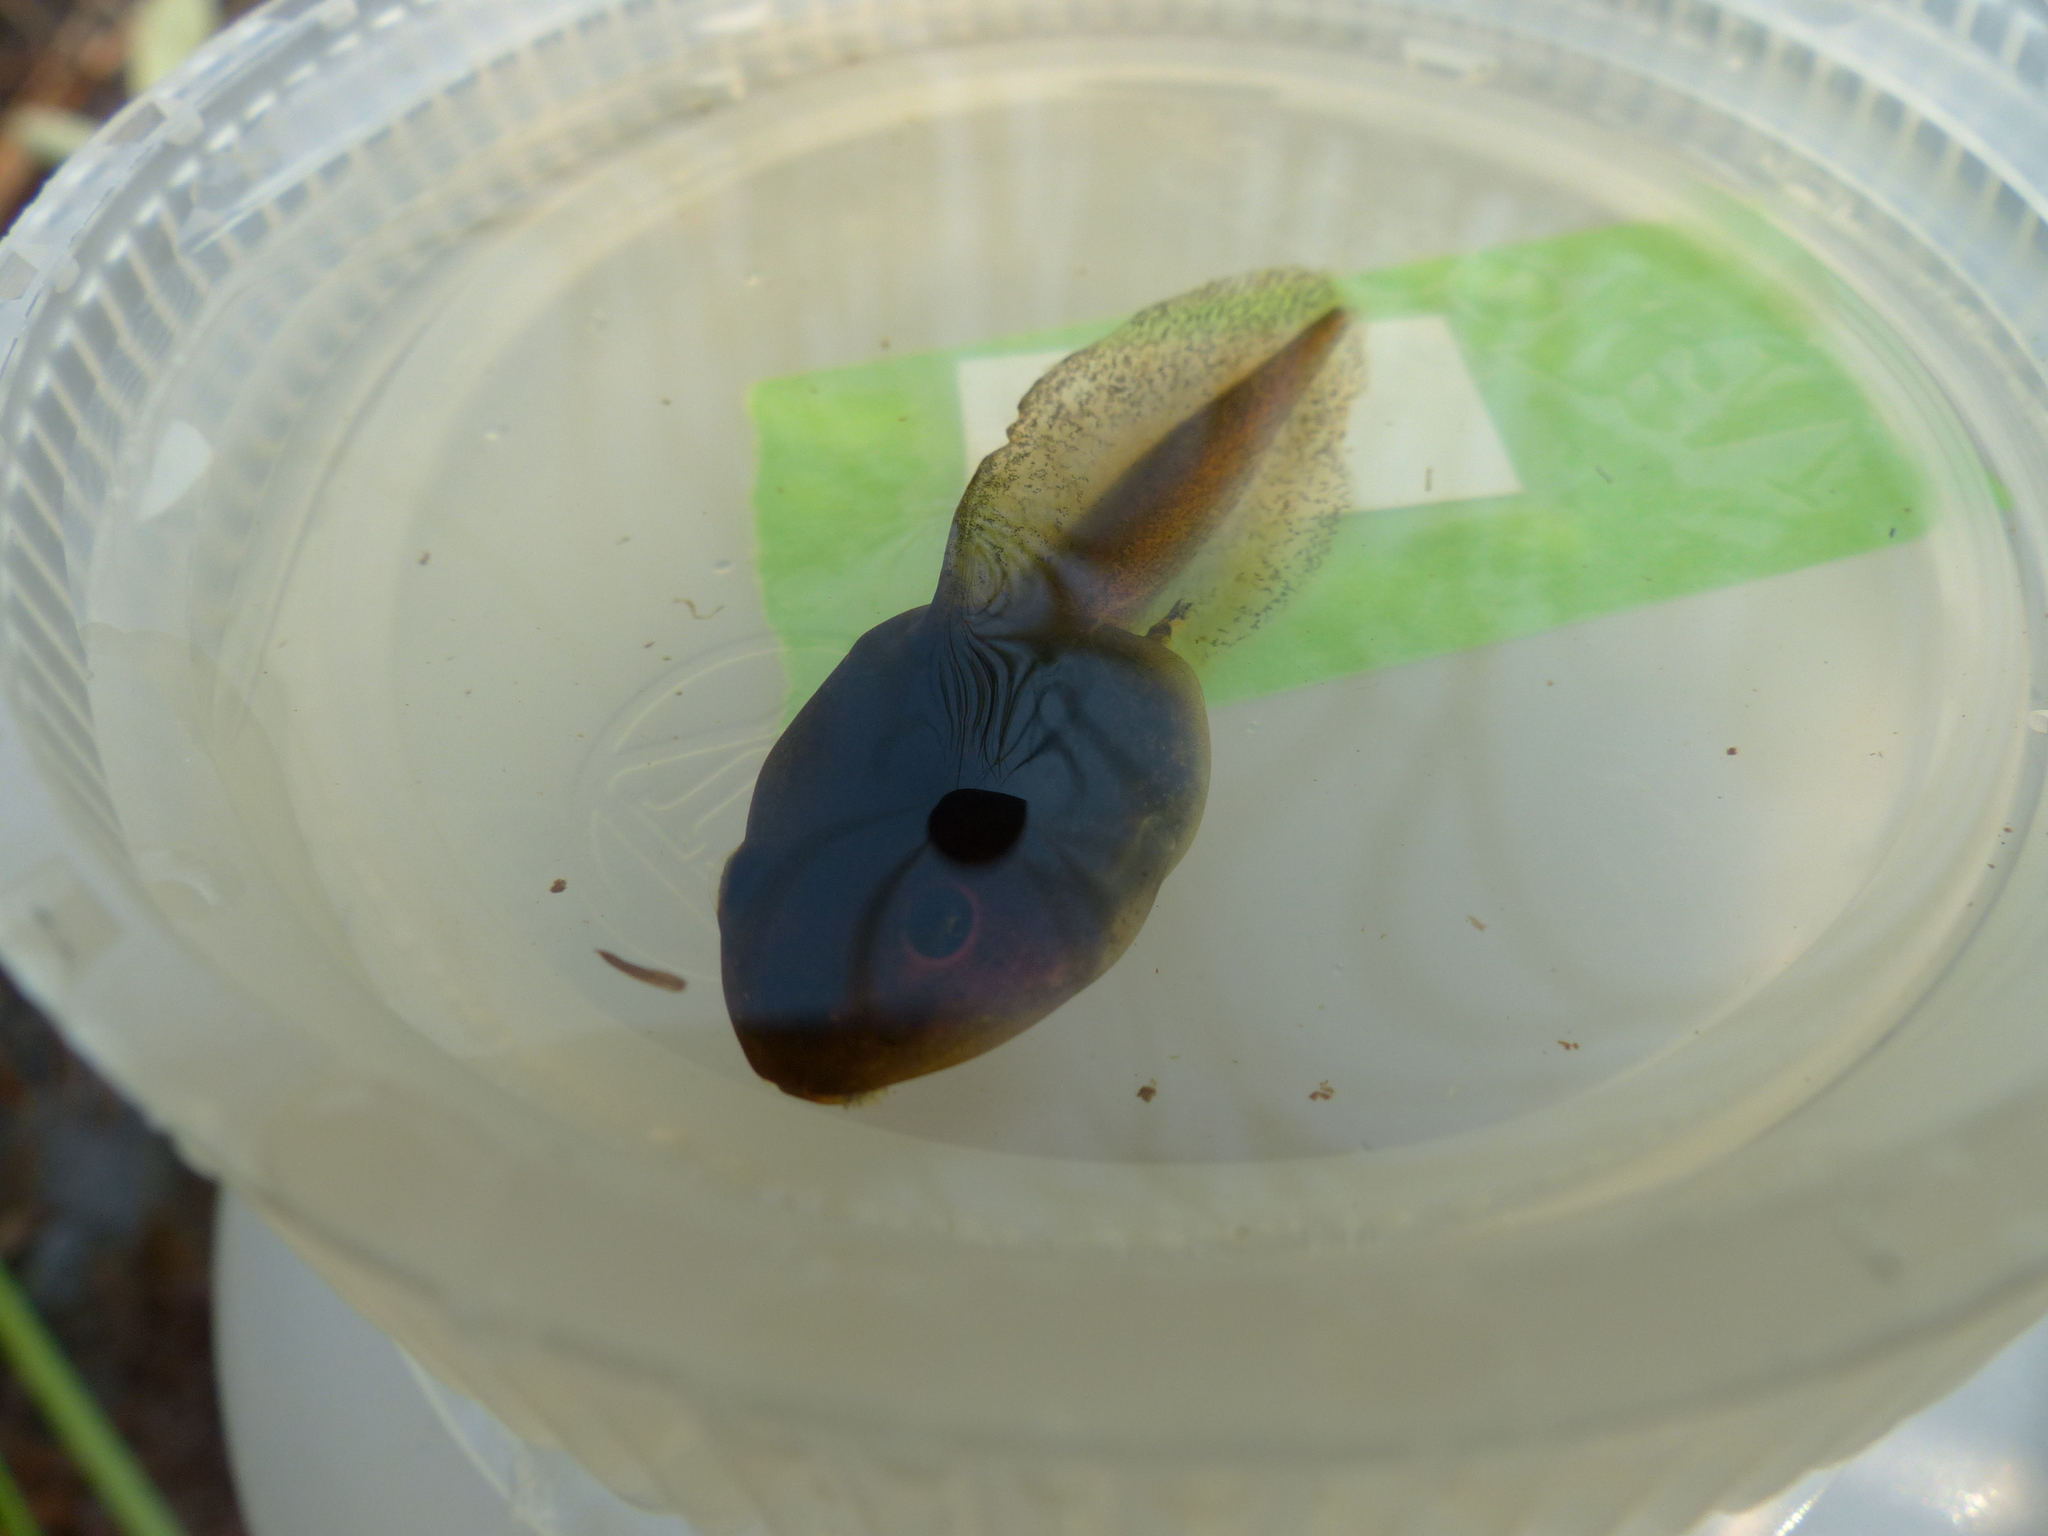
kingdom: Animalia
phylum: Chordata
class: Amphibia
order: Anura
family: Ranidae
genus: Lithobates
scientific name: Lithobates sylvaticus
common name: Wood frog
